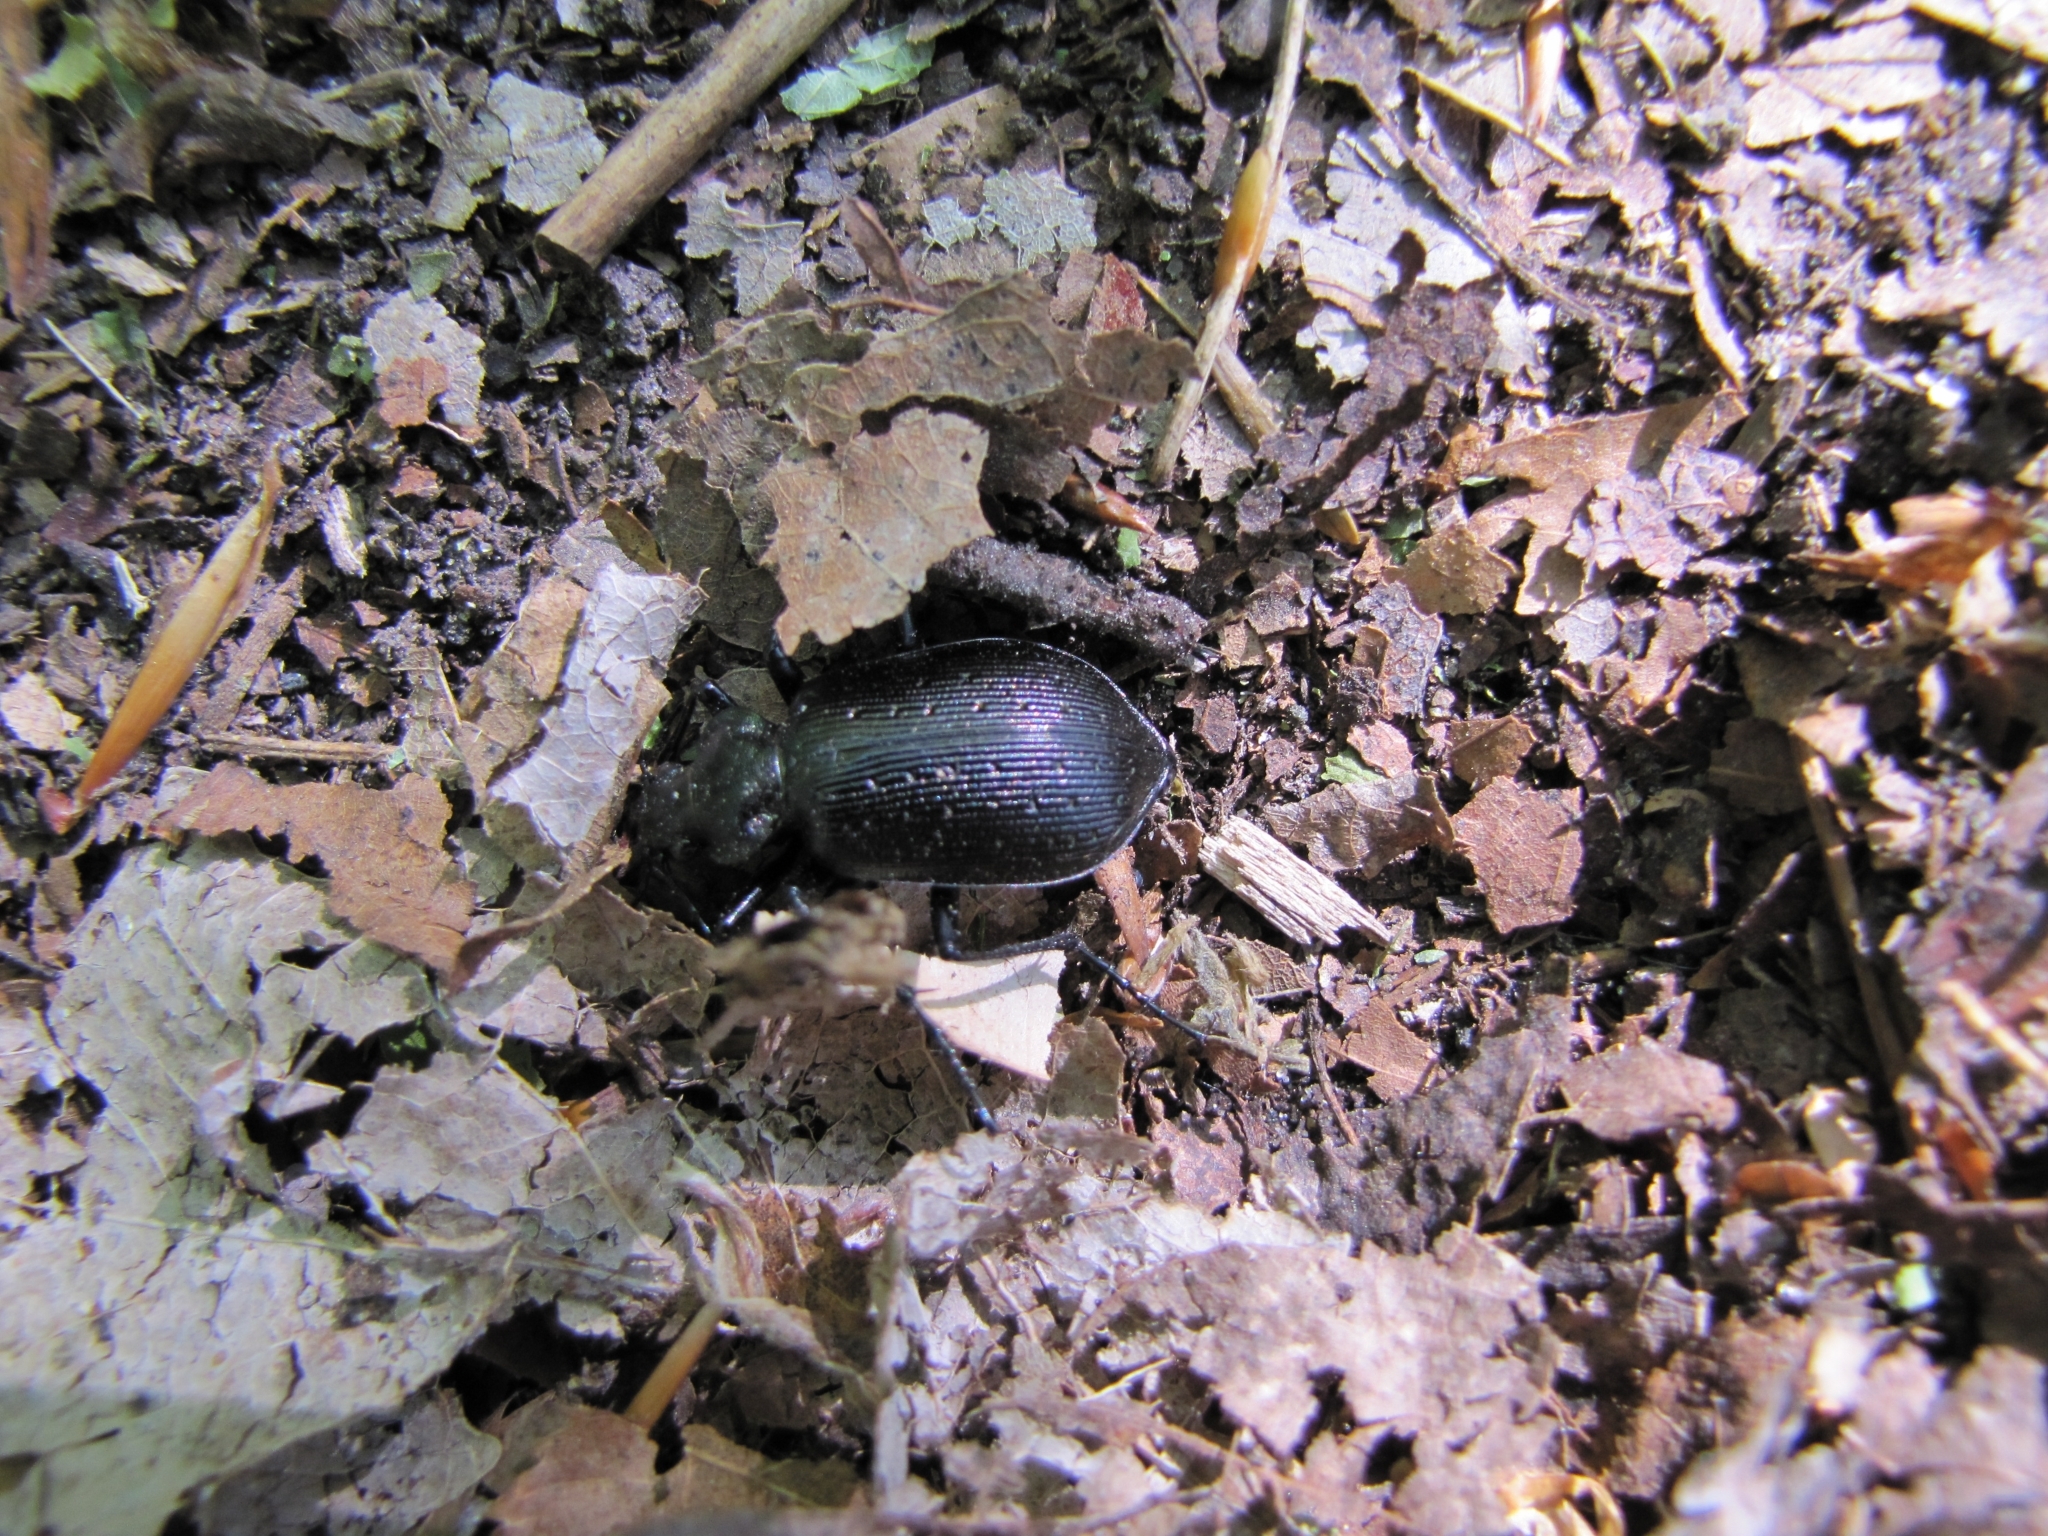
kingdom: Animalia
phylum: Arthropoda
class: Insecta
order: Coleoptera
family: Carabidae
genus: Calosoma
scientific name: Calosoma calidum
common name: Fiery hunter
